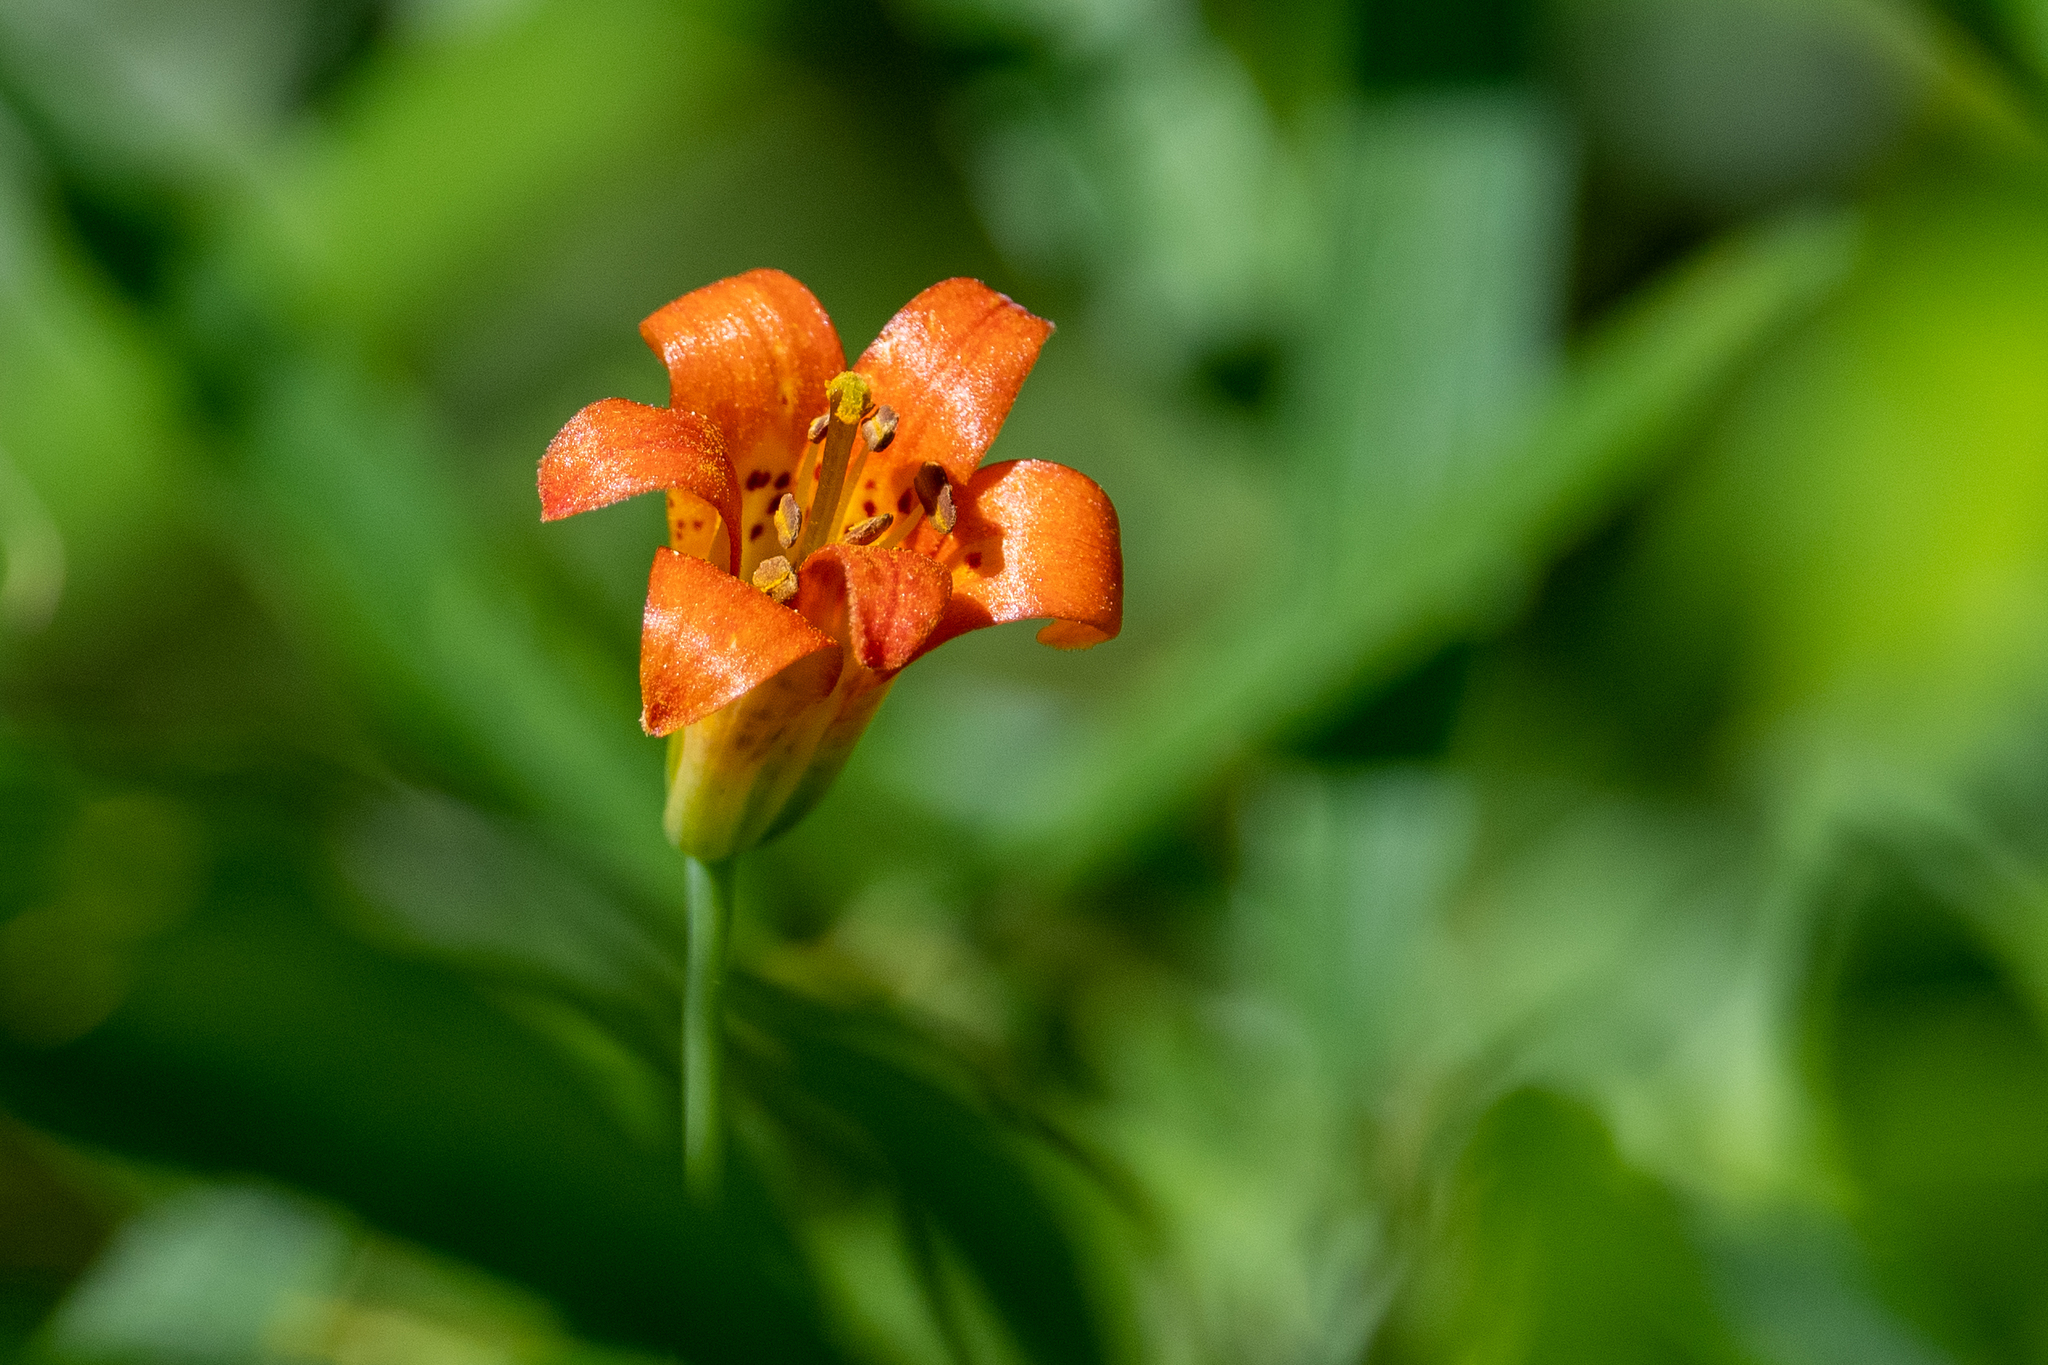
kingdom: Plantae
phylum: Tracheophyta
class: Liliopsida
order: Liliales
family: Liliaceae
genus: Lilium
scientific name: Lilium parvum
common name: Alpine lily
